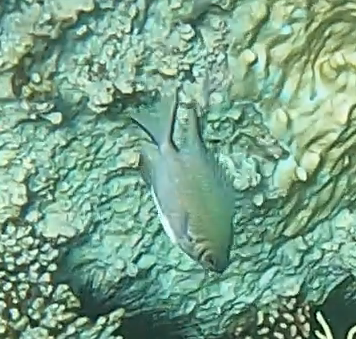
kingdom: Animalia
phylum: Chordata
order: Perciformes
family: Pomacentridae
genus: Amblyglyphidodon
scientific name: Amblyglyphidodon indicus
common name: Maldives damselfish
